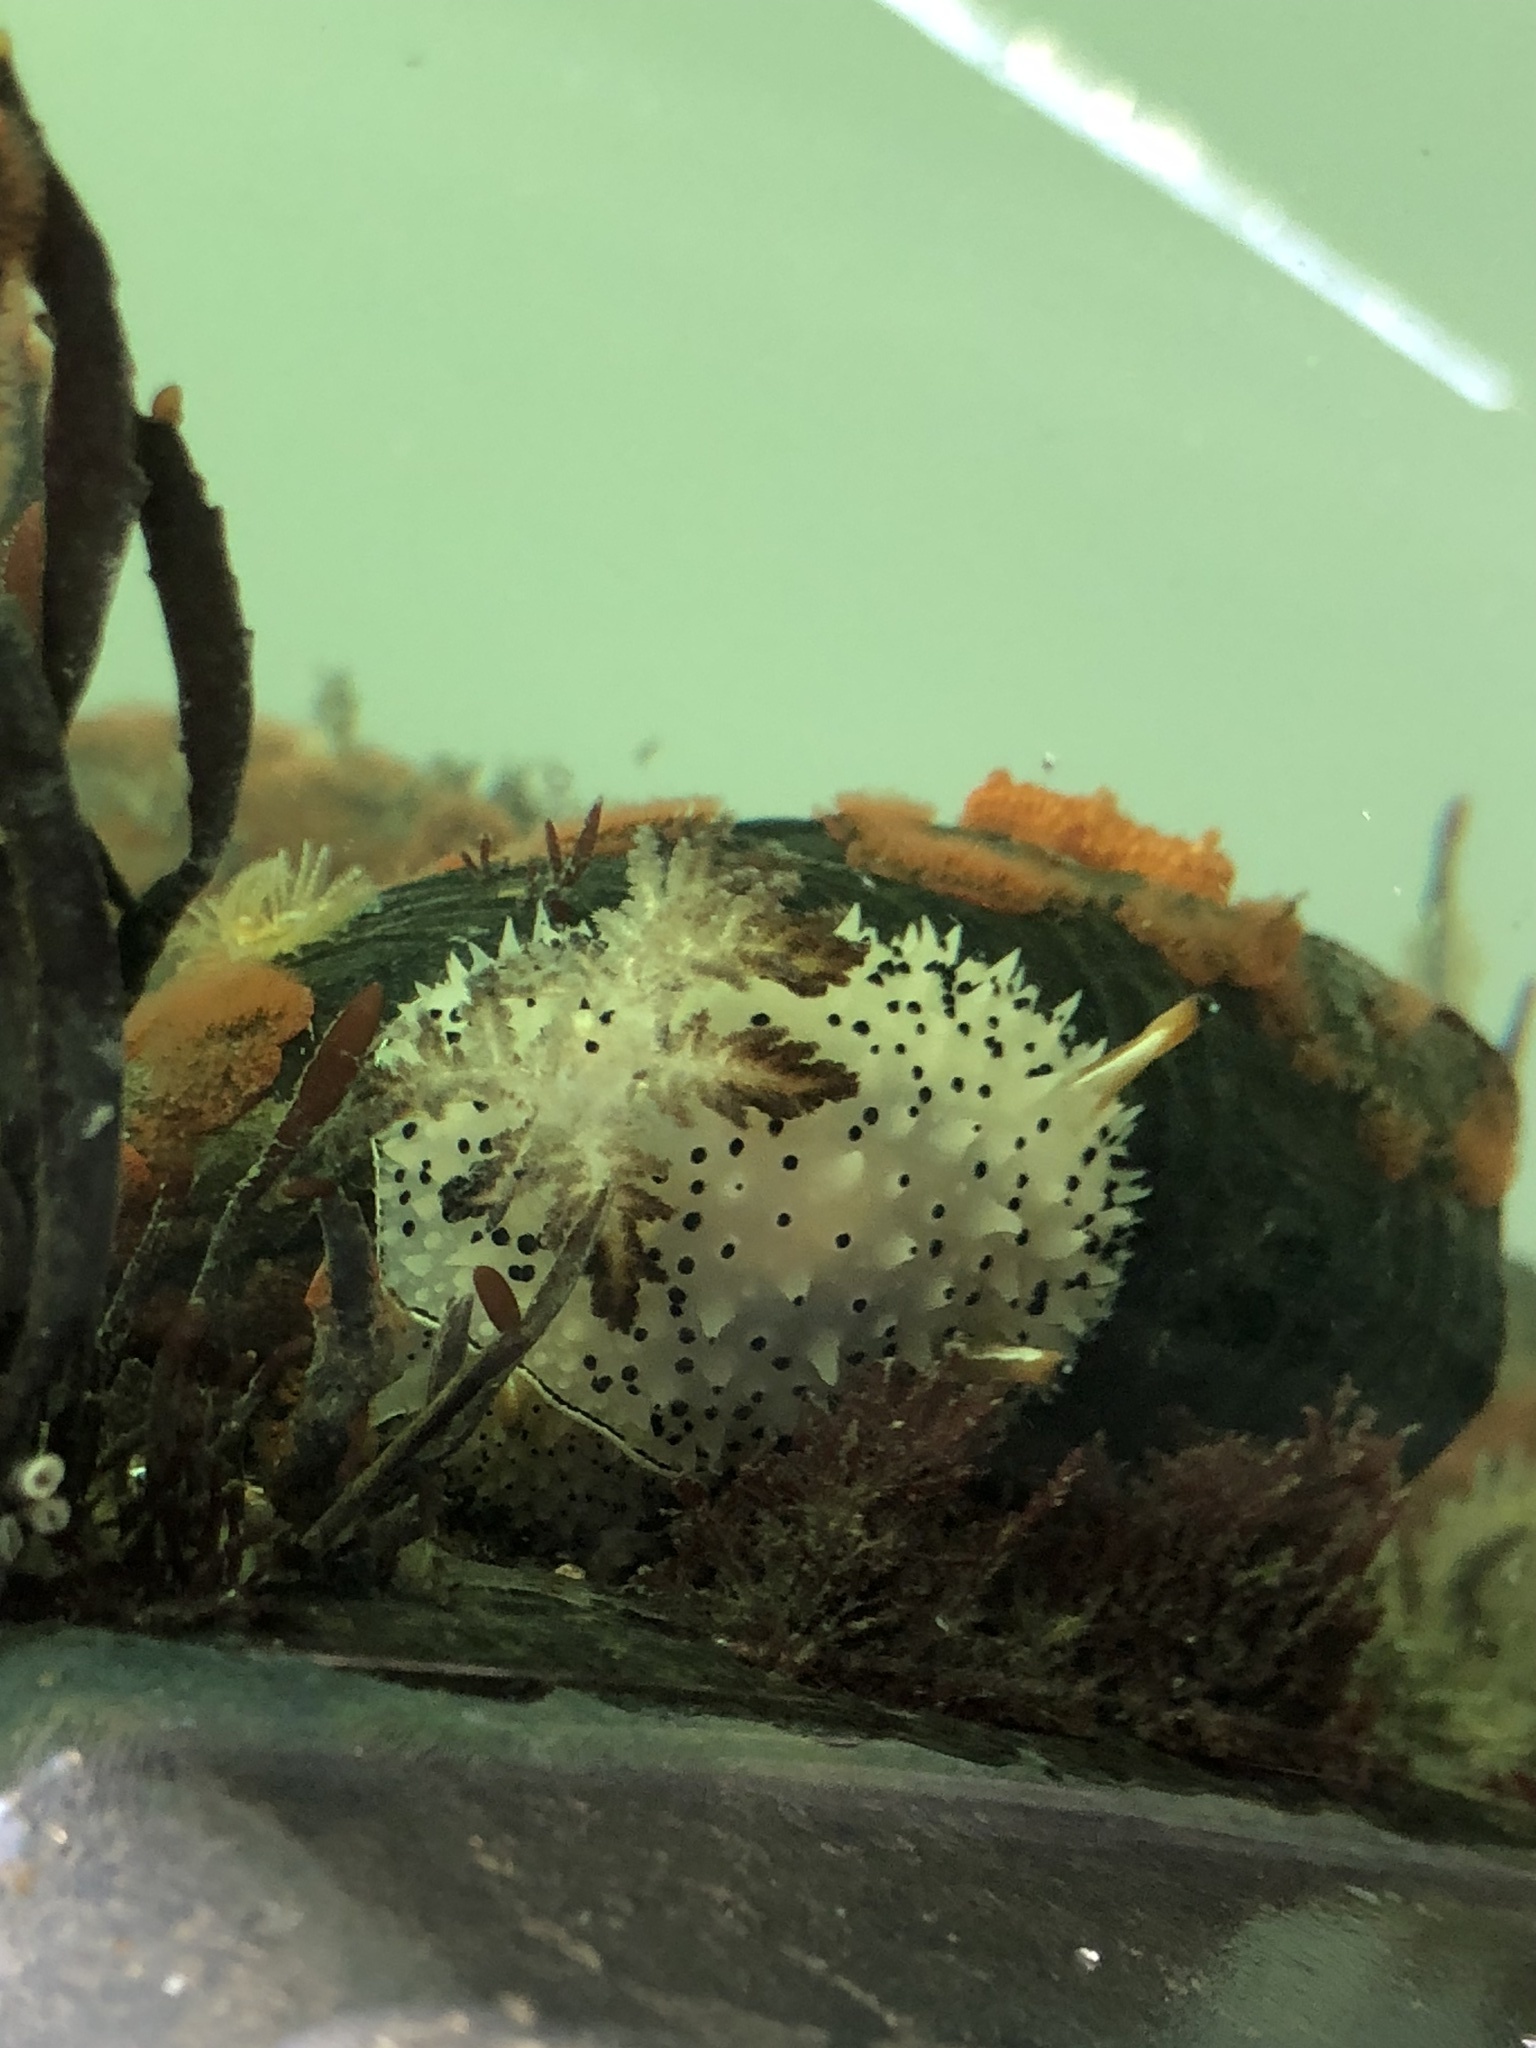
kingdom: Animalia
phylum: Mollusca
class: Gastropoda
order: Nudibranchia
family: Onchidorididae
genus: Acanthodoris
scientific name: Acanthodoris rhodoceras
